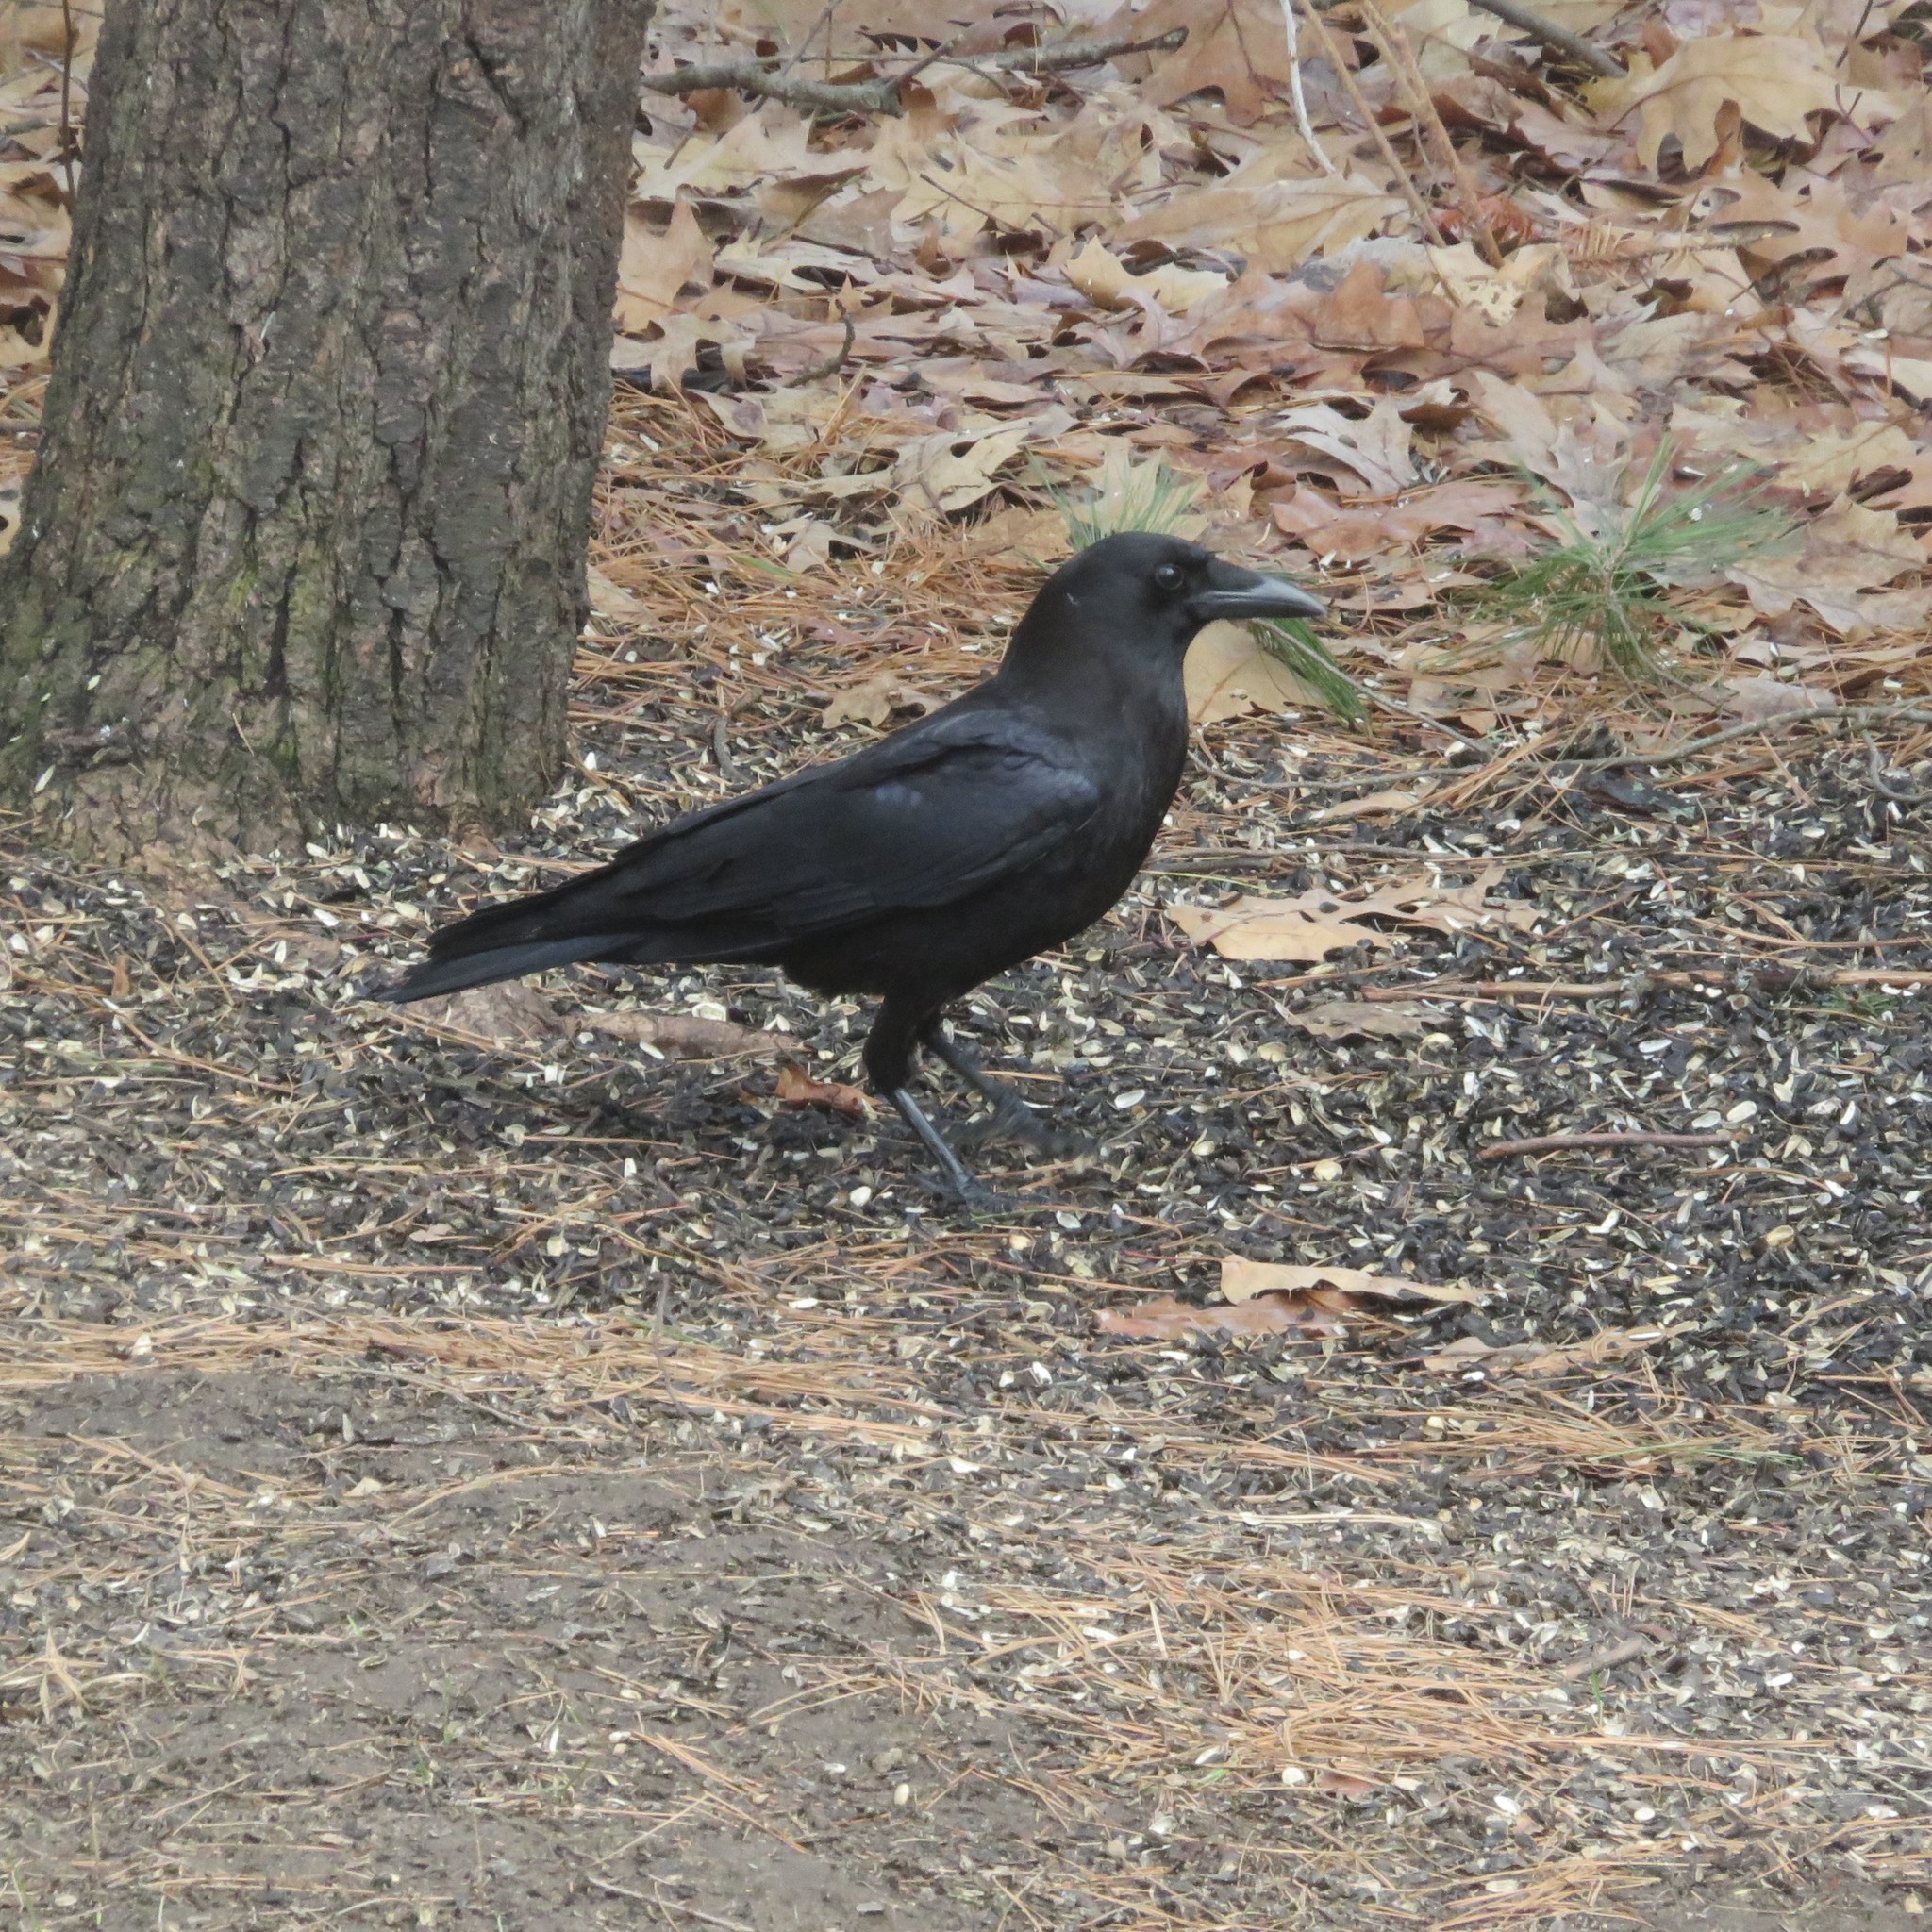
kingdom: Animalia
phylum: Chordata
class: Aves
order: Passeriformes
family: Corvidae
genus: Corvus
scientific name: Corvus brachyrhynchos
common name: American crow
